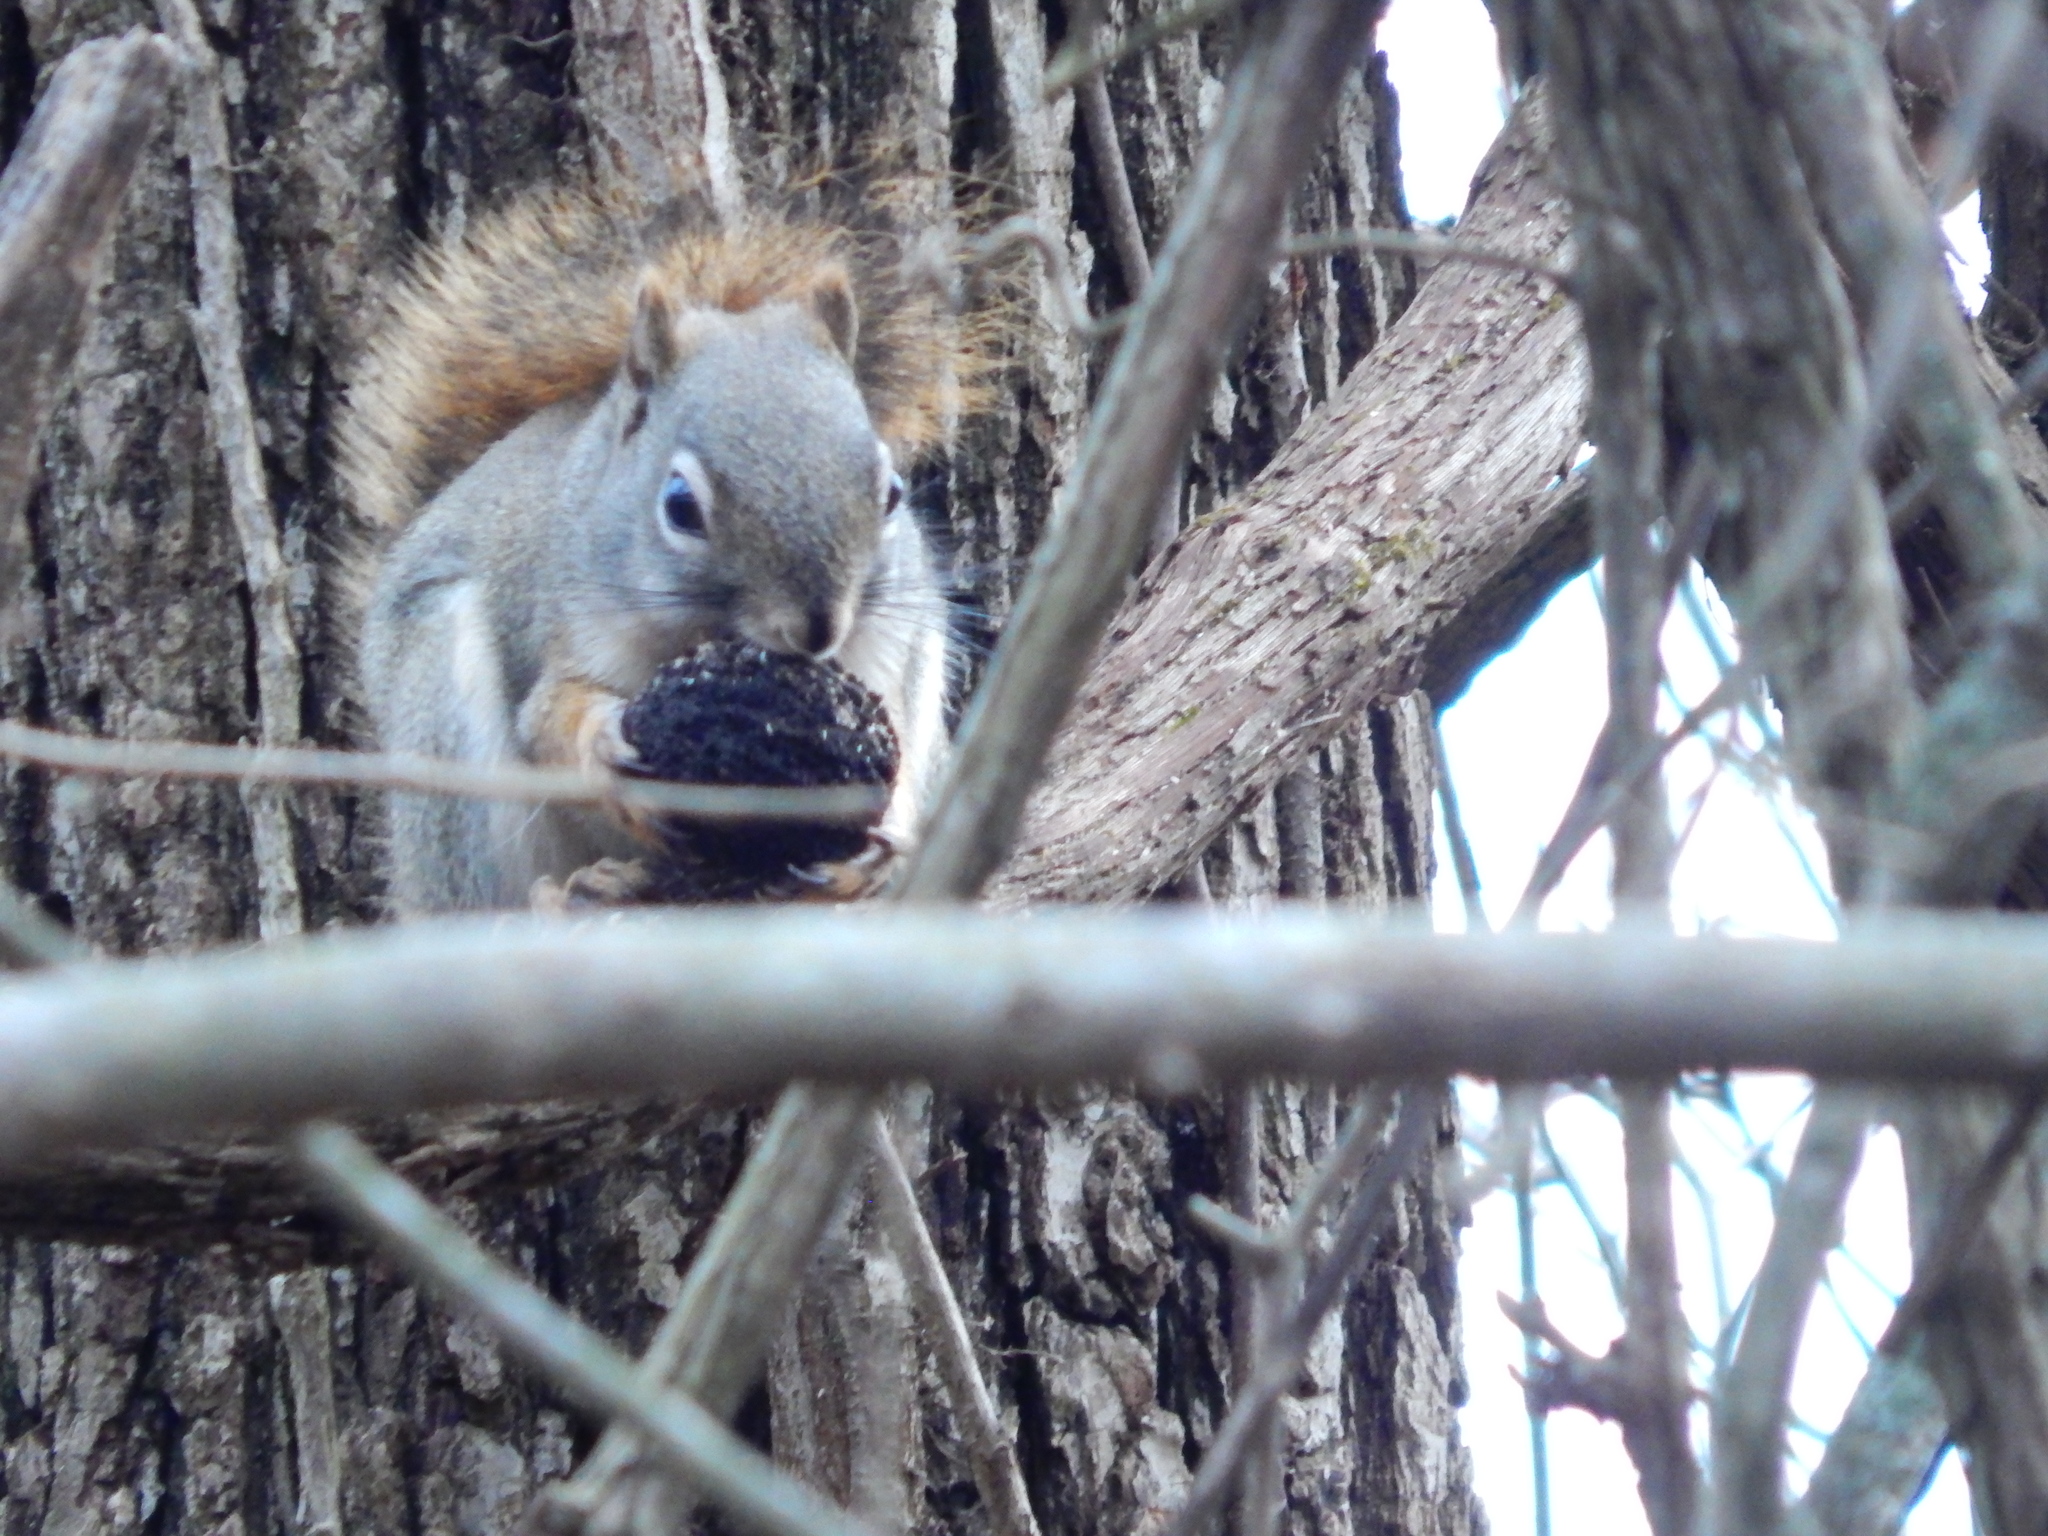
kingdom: Animalia
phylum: Chordata
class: Mammalia
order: Rodentia
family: Sciuridae
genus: Tamiasciurus
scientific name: Tamiasciurus hudsonicus
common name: Red squirrel
